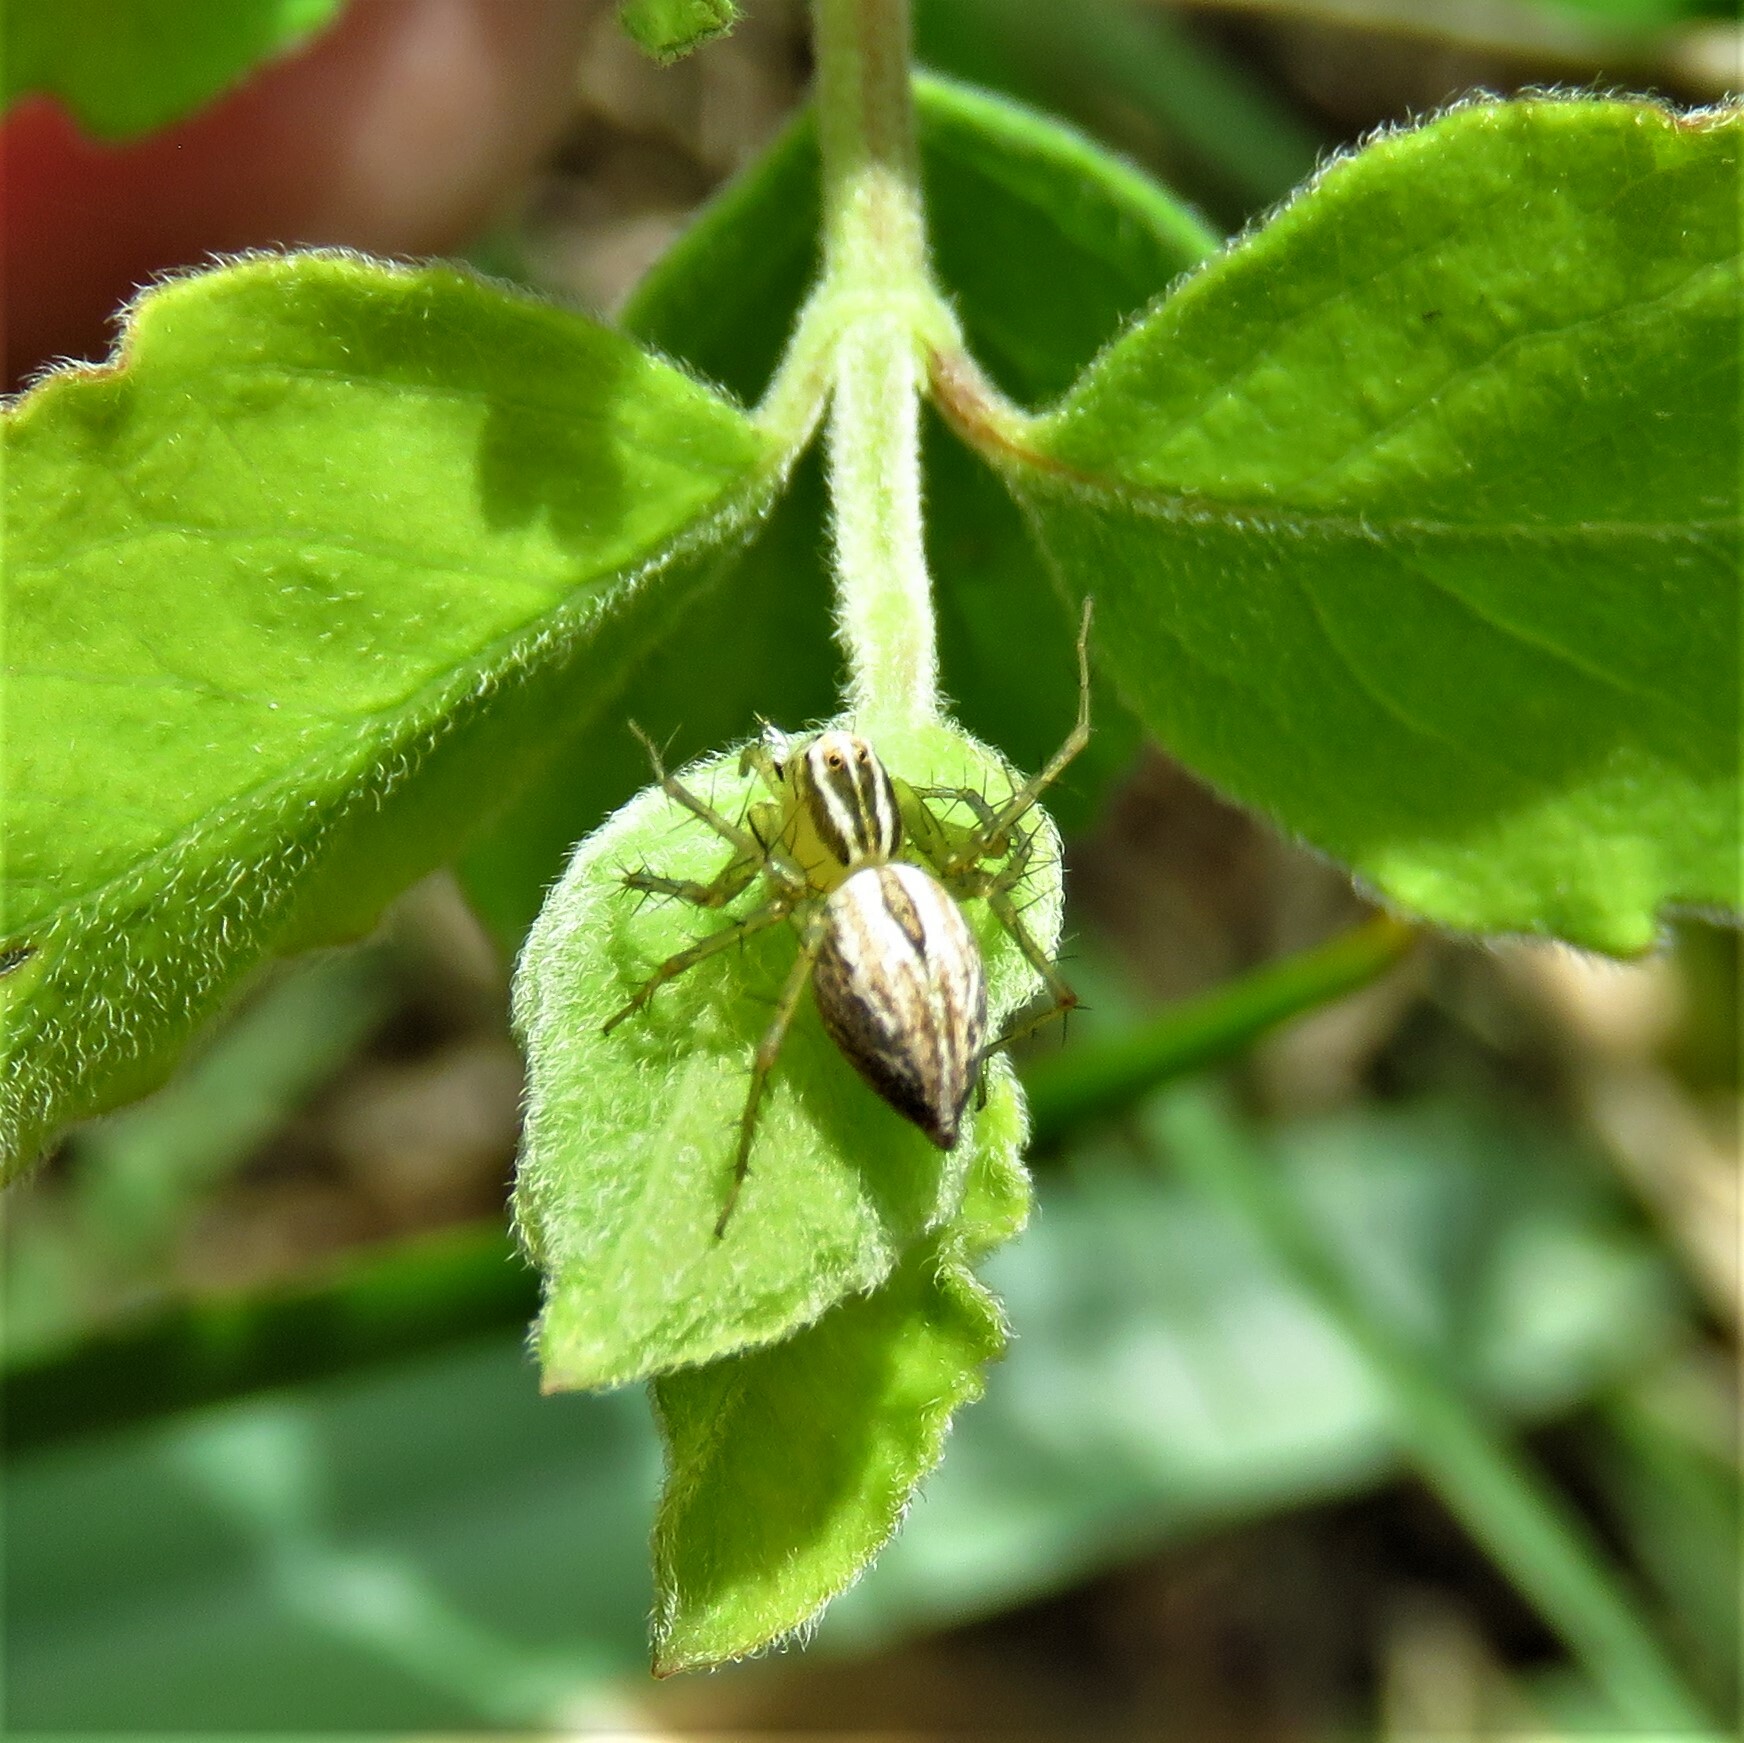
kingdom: Animalia
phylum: Arthropoda
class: Arachnida
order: Araneae
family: Oxyopidae
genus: Oxyopes
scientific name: Oxyopes salticus
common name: Lynx spiders
